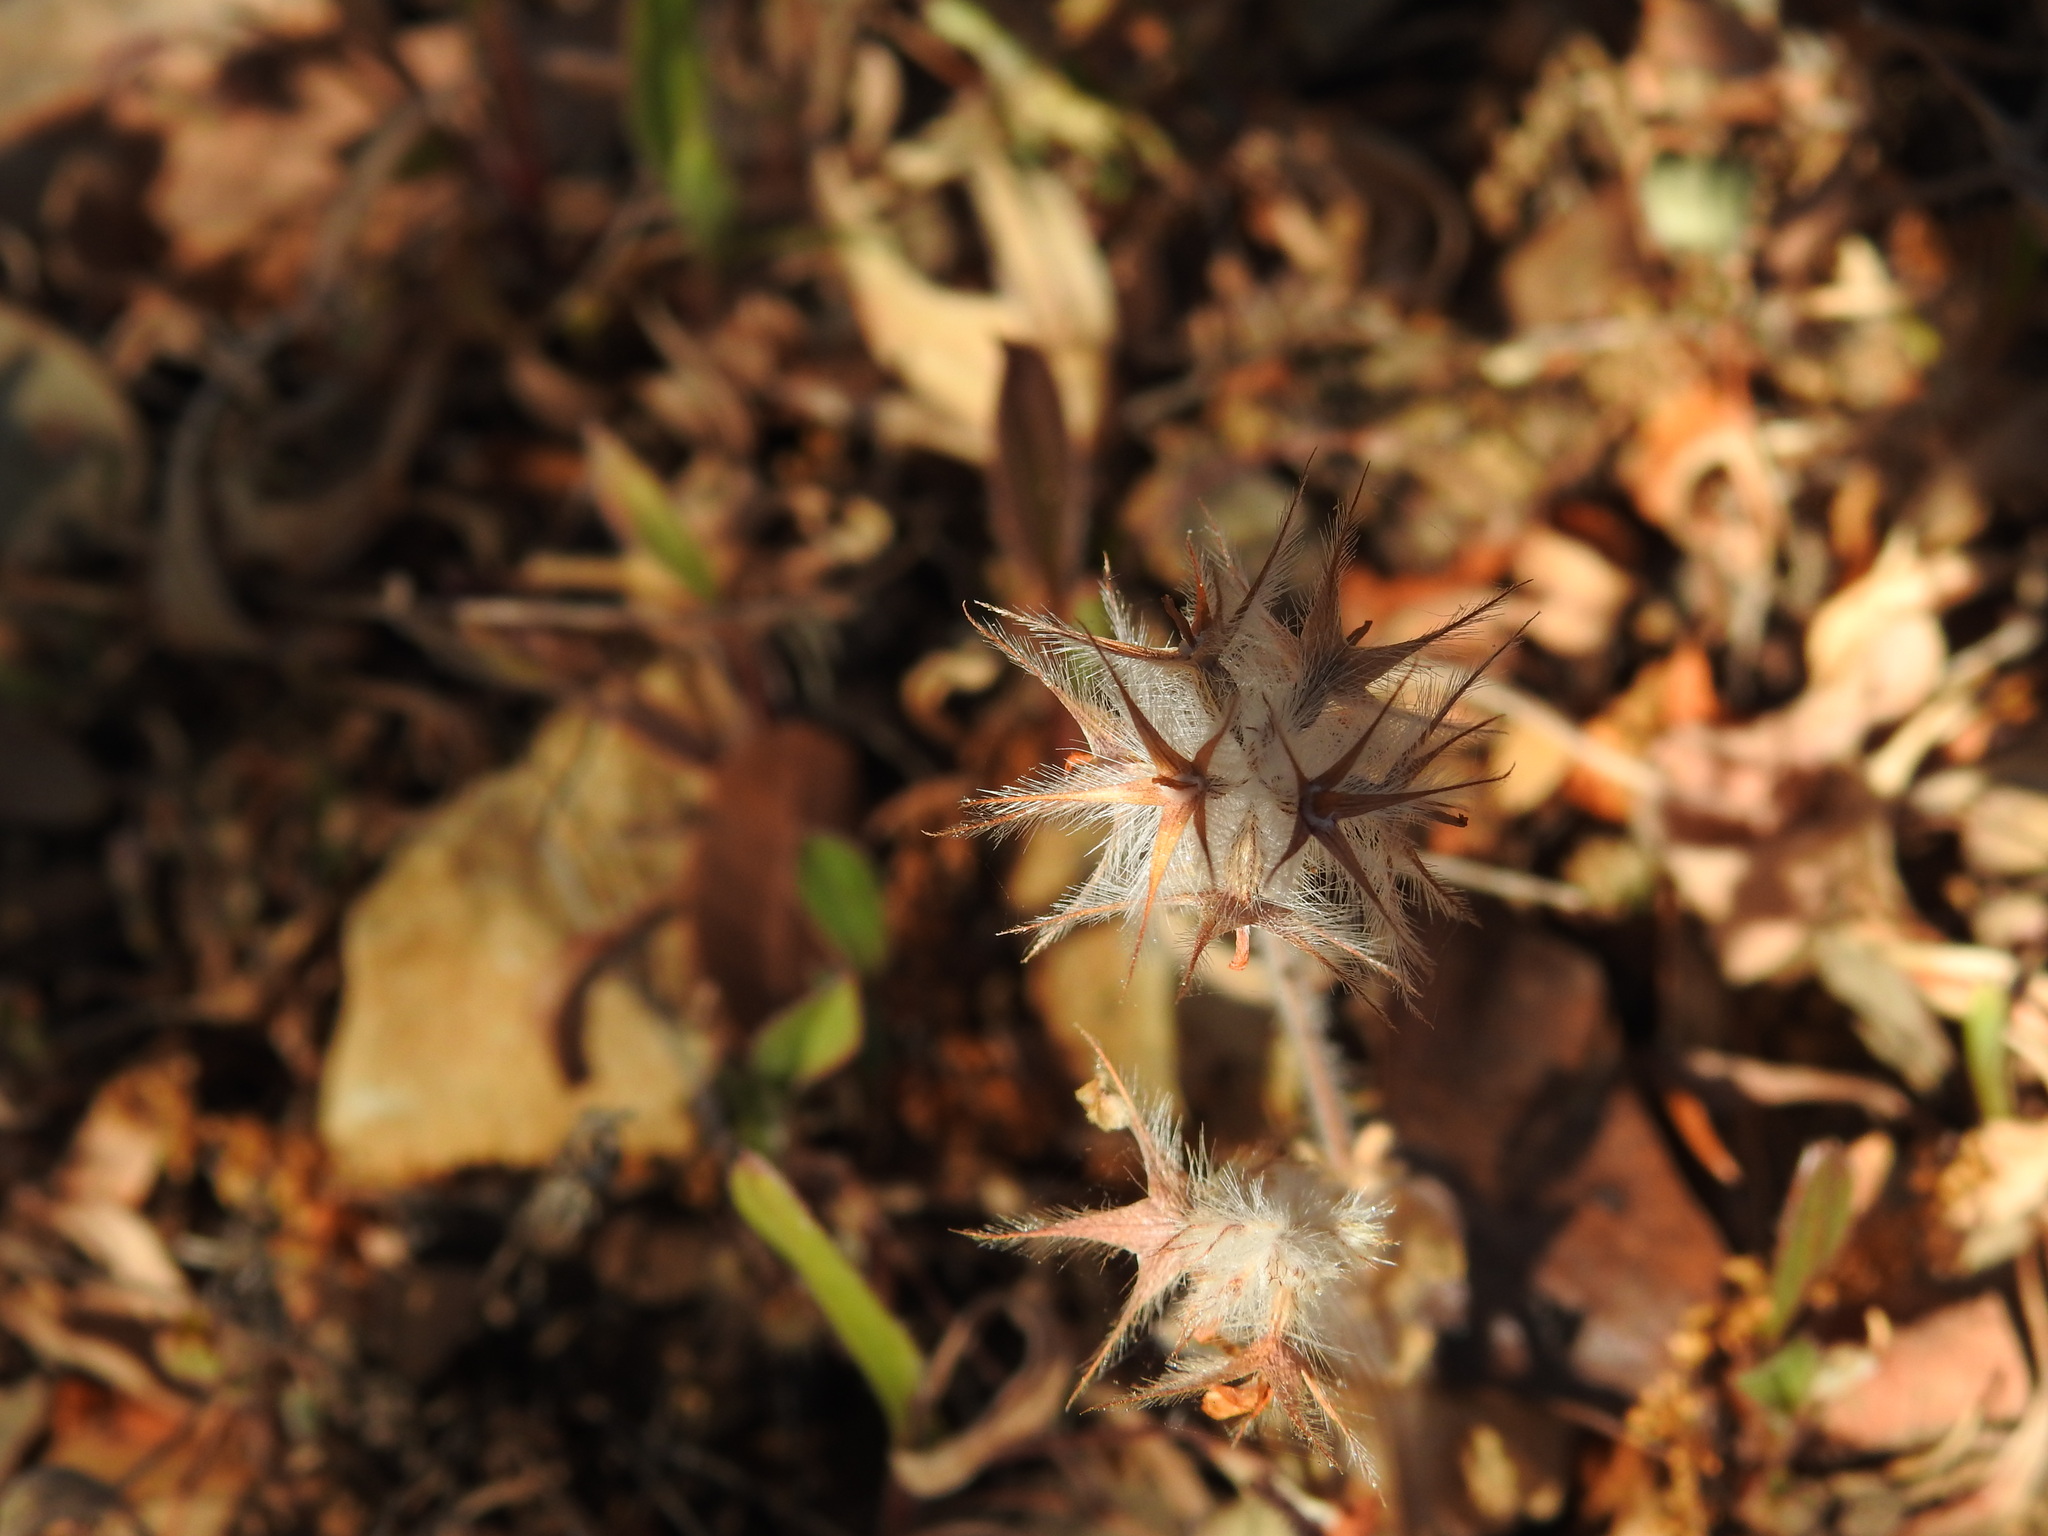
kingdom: Plantae
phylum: Tracheophyta
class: Magnoliopsida
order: Fabales
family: Fabaceae
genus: Trifolium
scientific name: Trifolium stellatum
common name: Starry clover
